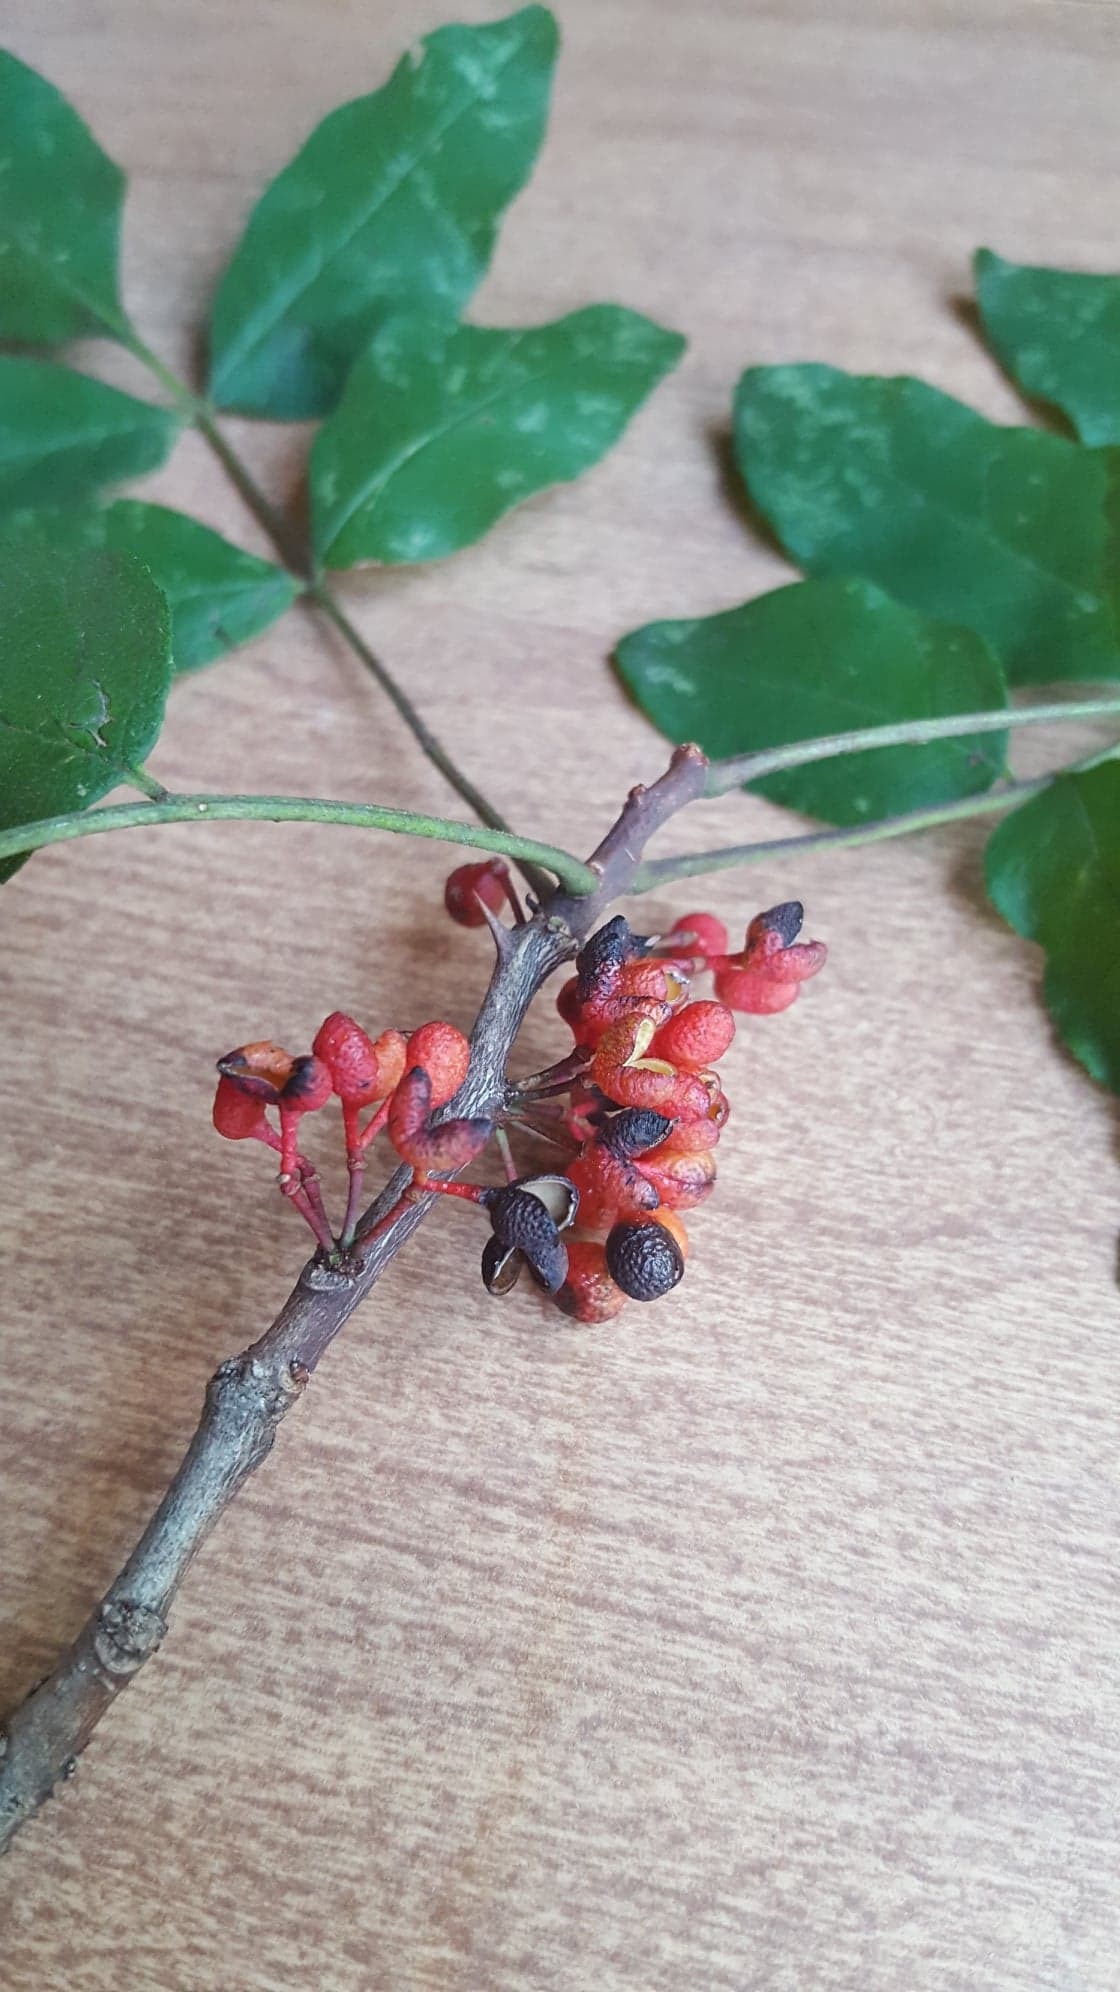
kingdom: Plantae
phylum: Tracheophyta
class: Magnoliopsida
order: Sapindales
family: Rutaceae
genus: Zanthoxylum
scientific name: Zanthoxylum americanum
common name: Northern prickly-ash
